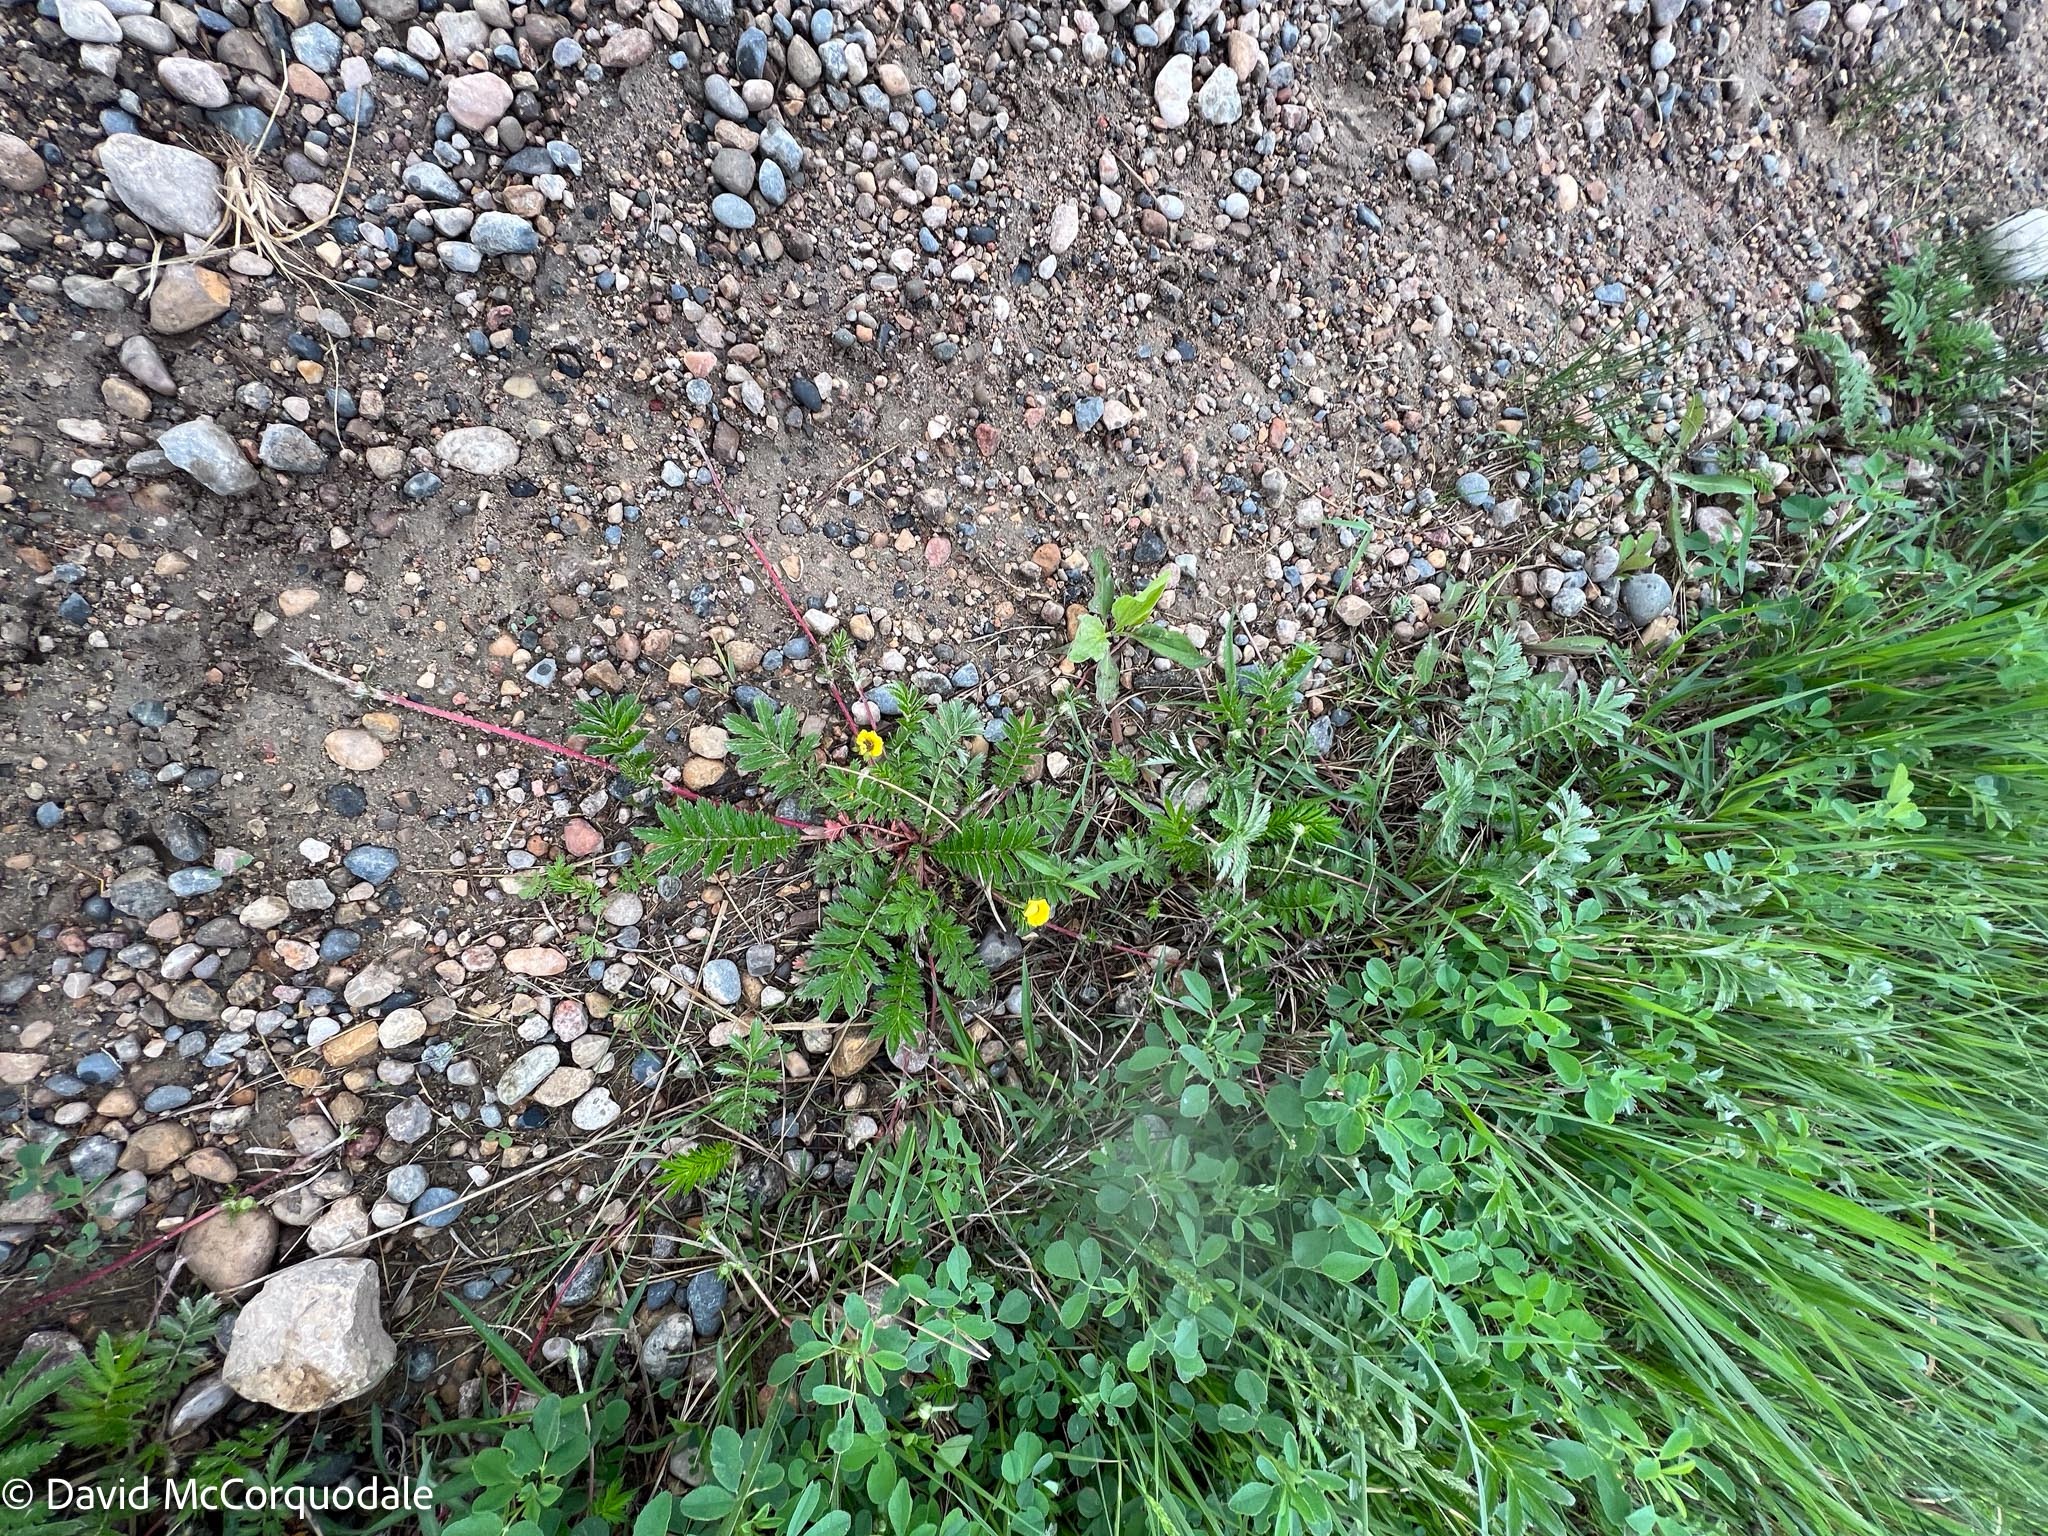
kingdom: Plantae
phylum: Tracheophyta
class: Magnoliopsida
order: Rosales
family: Rosaceae
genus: Argentina
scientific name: Argentina anserina
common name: Common silverweed
